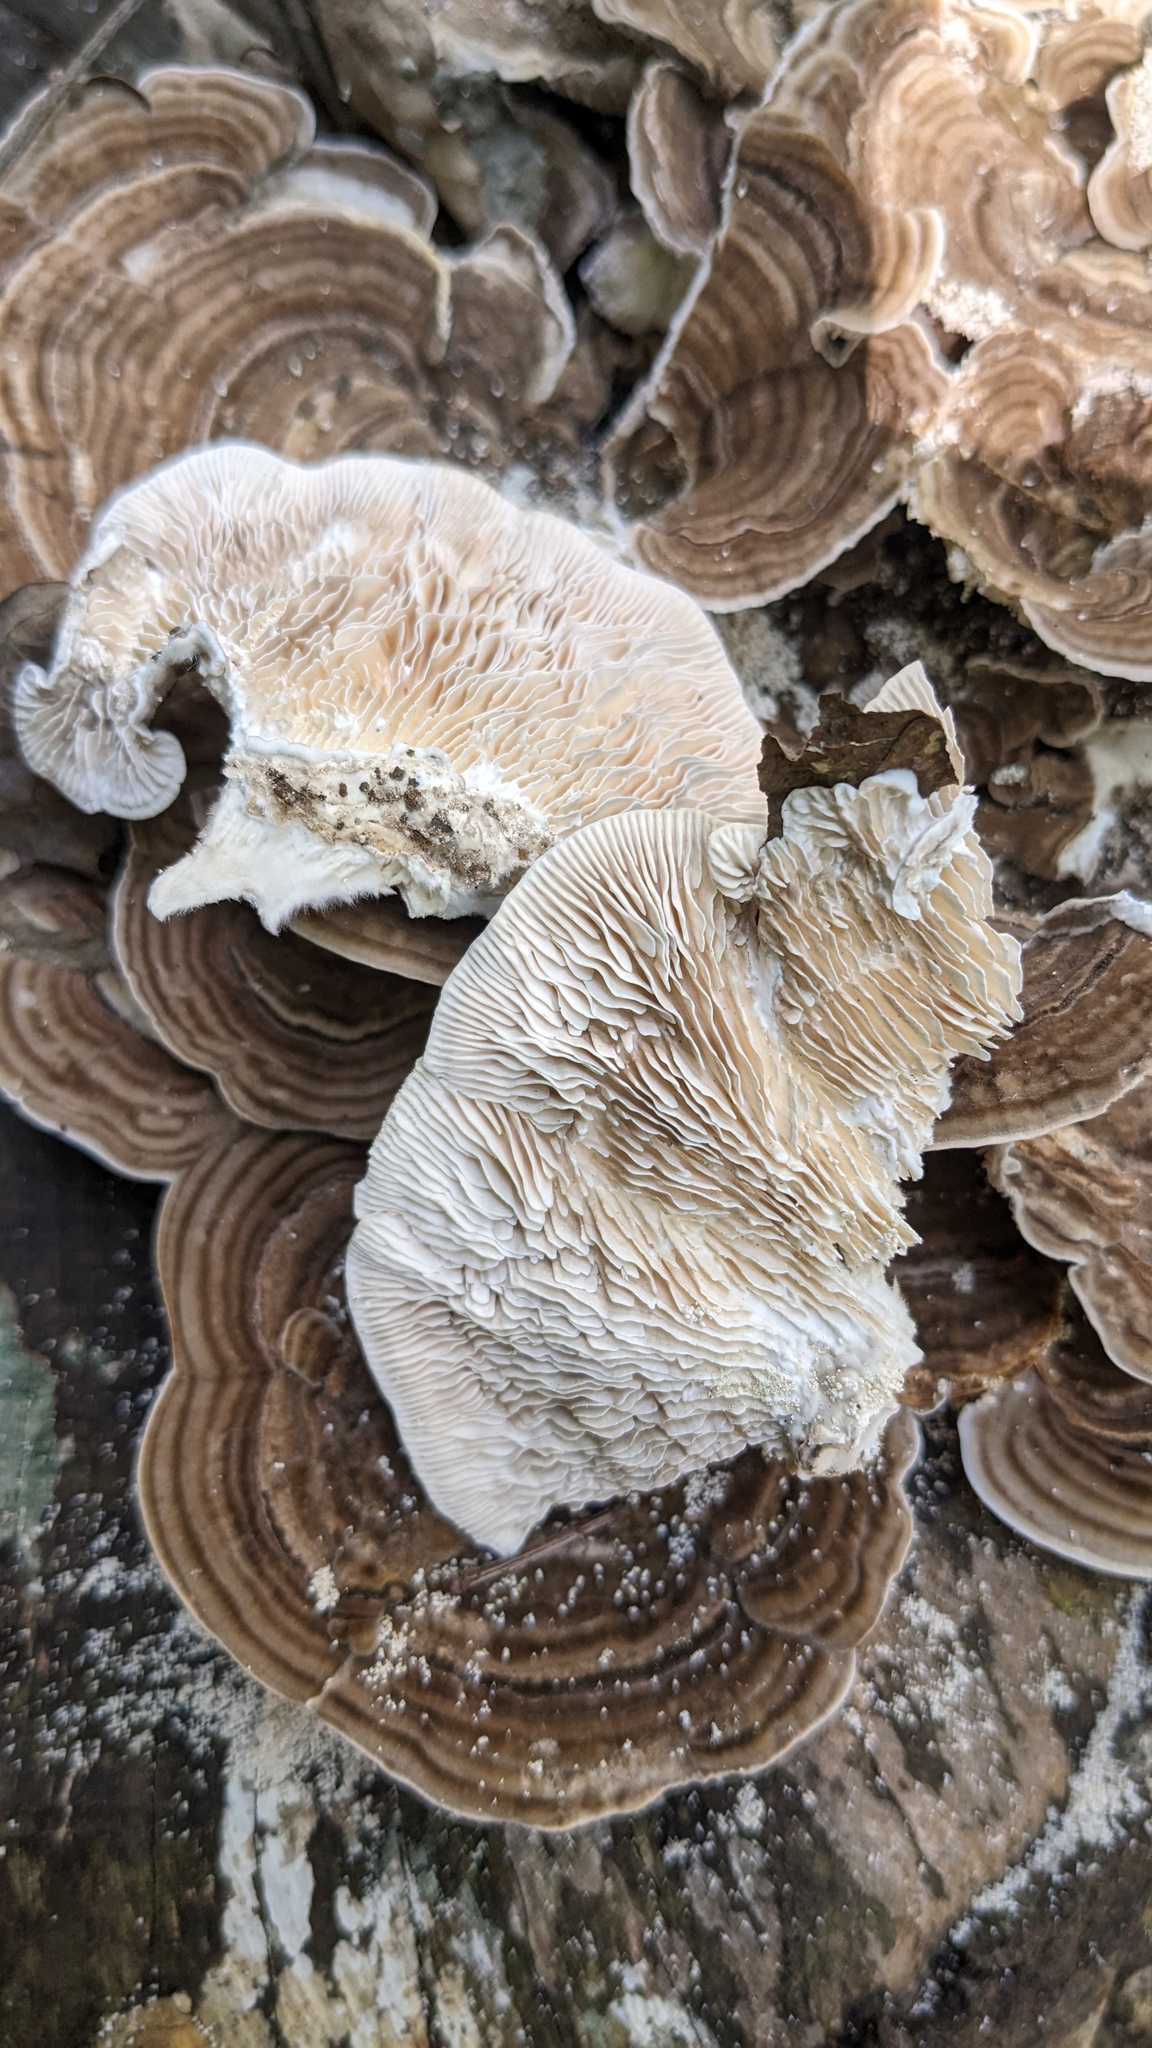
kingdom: Fungi
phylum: Basidiomycota
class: Agaricomycetes
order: Polyporales
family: Polyporaceae
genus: Lenzites
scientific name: Lenzites betulinus
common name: Birch mazegill
